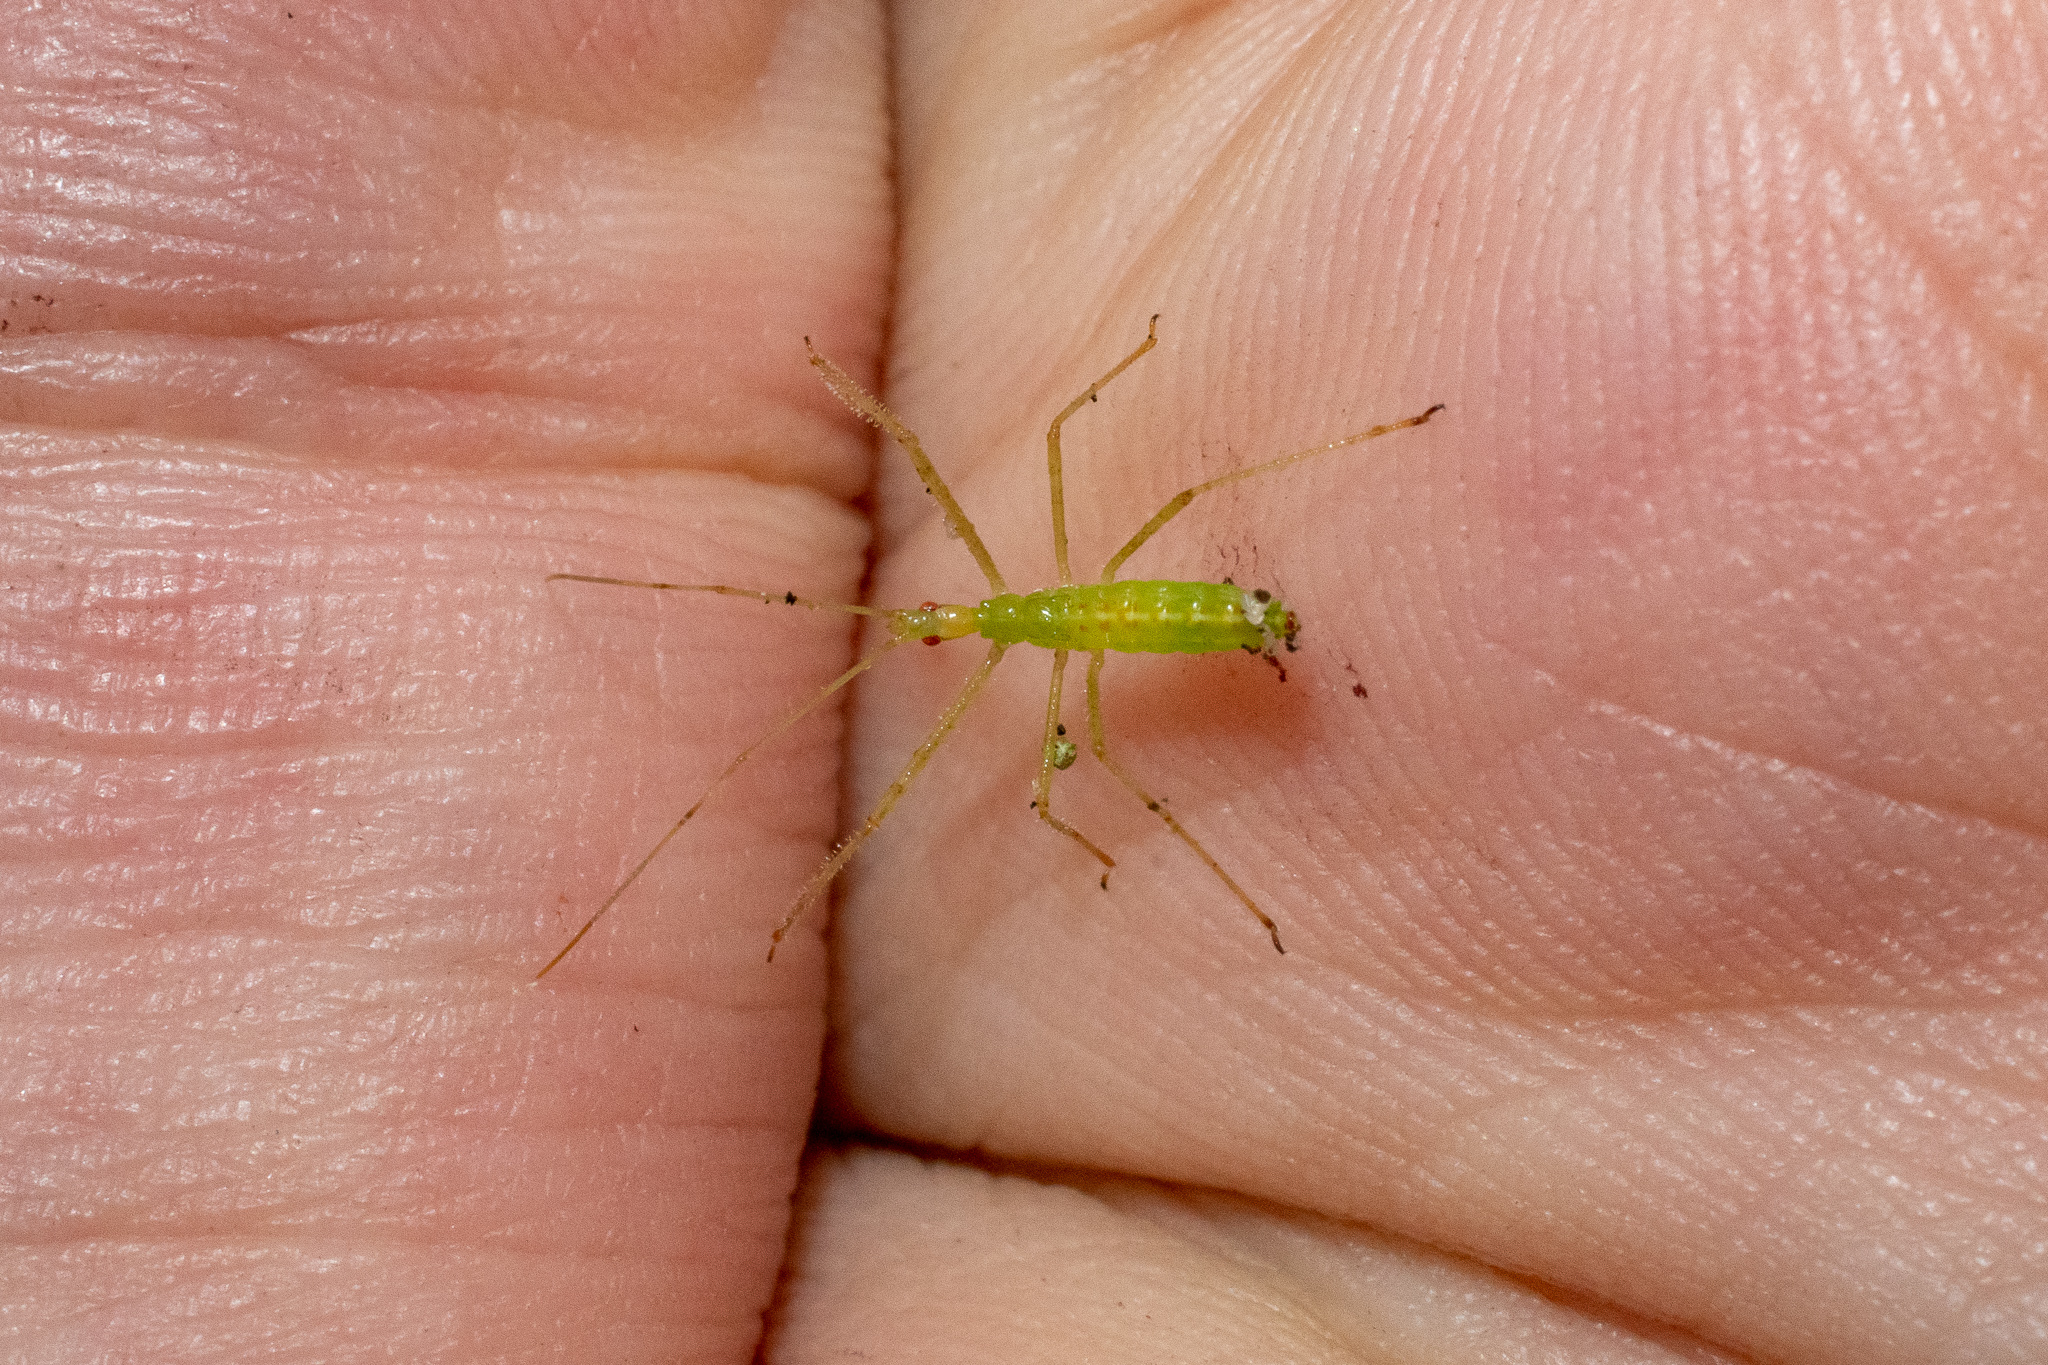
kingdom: Animalia
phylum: Arthropoda
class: Insecta
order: Hemiptera
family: Reduviidae
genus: Zelus
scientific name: Zelus luridus
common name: Pale green assassin bug
